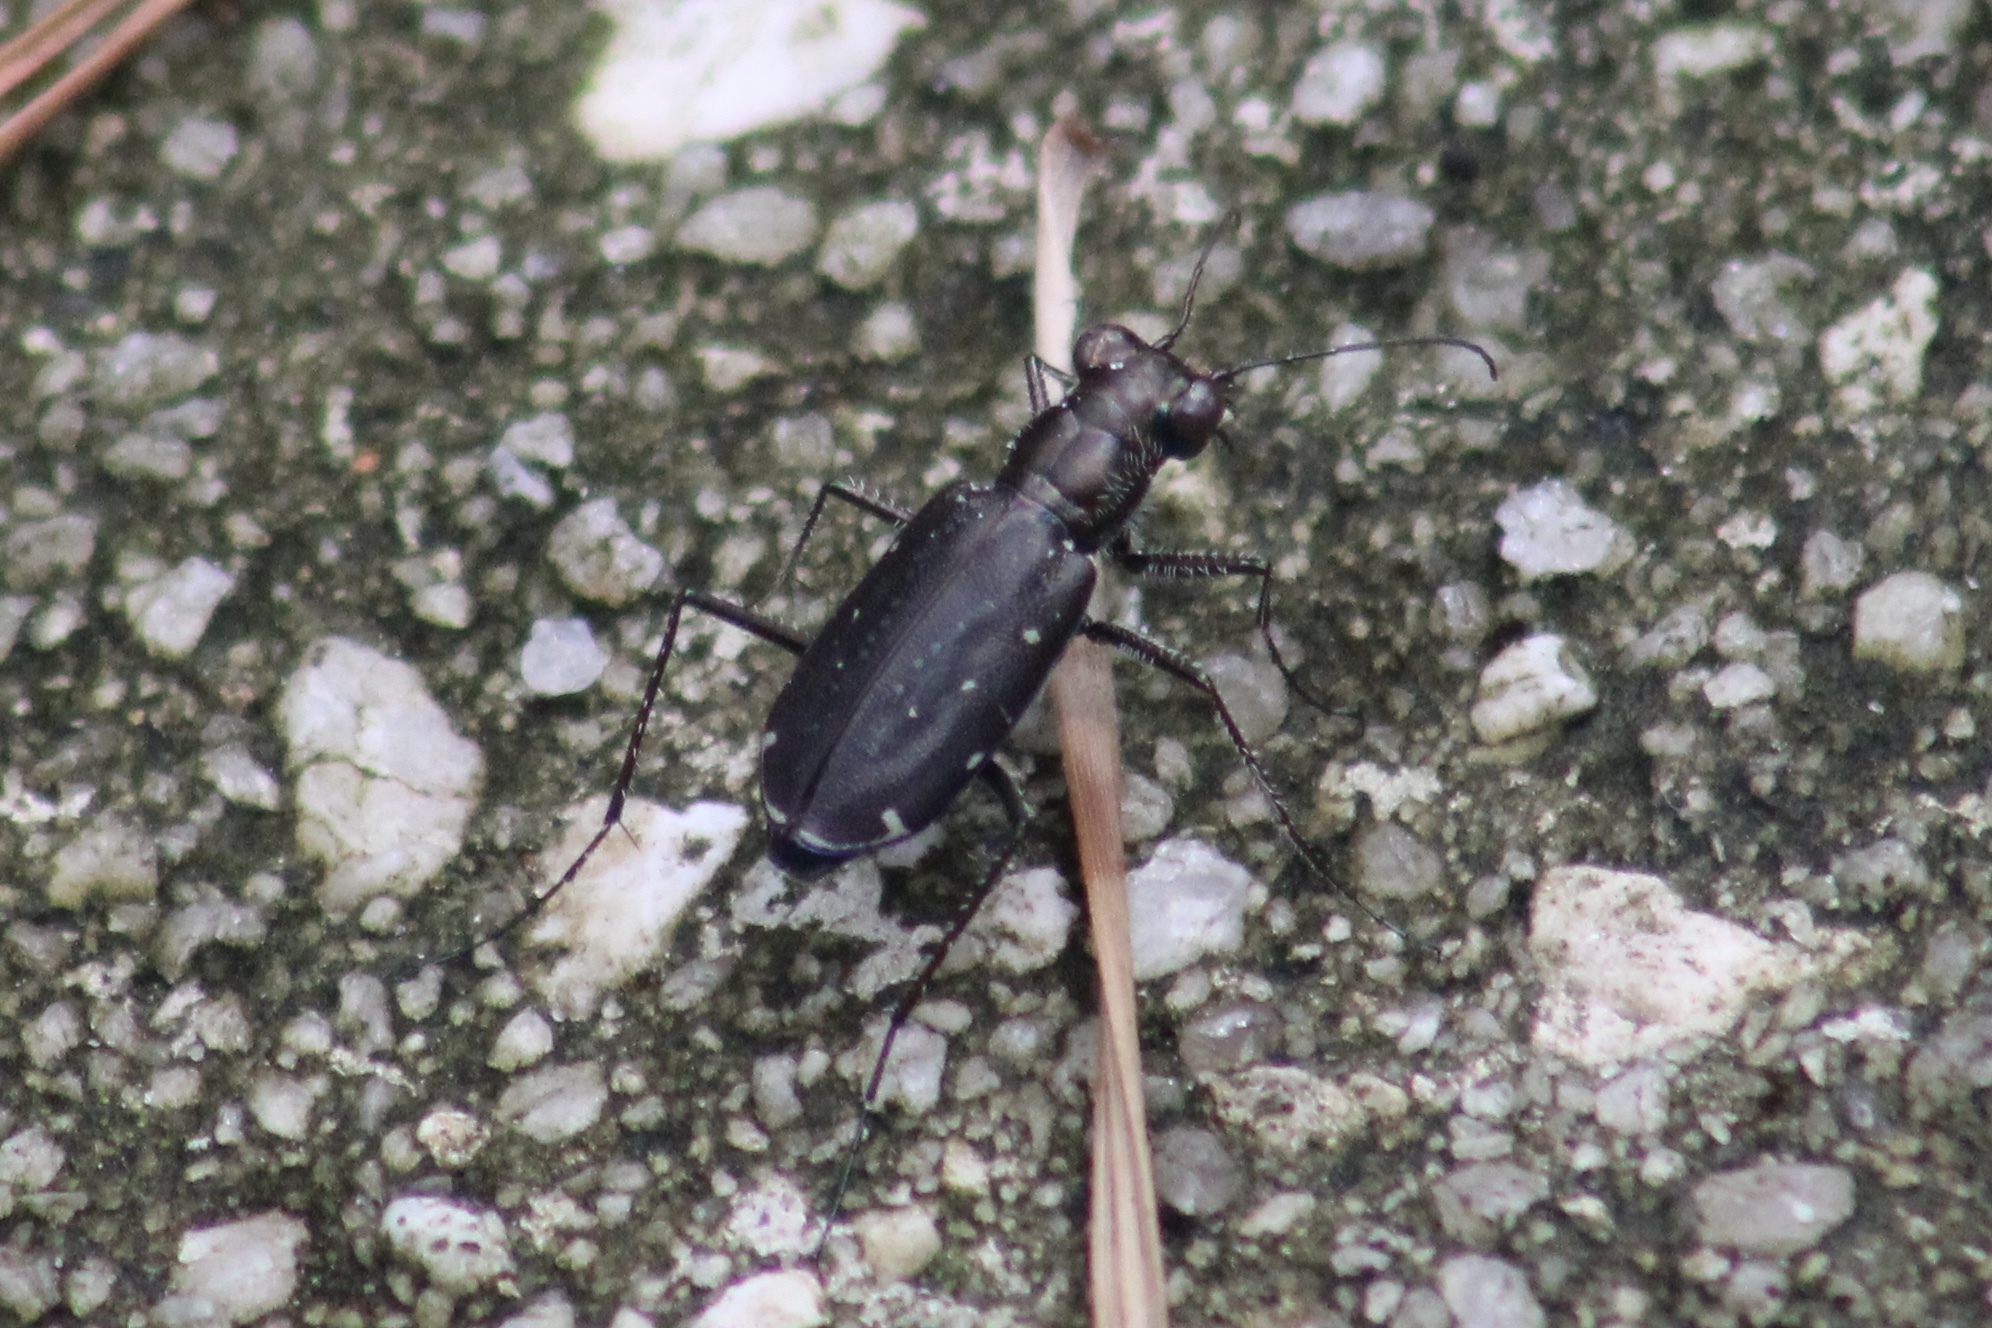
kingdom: Animalia
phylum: Arthropoda
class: Insecta
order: Coleoptera
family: Carabidae
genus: Cicindela
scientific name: Cicindela punctulata
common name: Punctured tiger beetle
